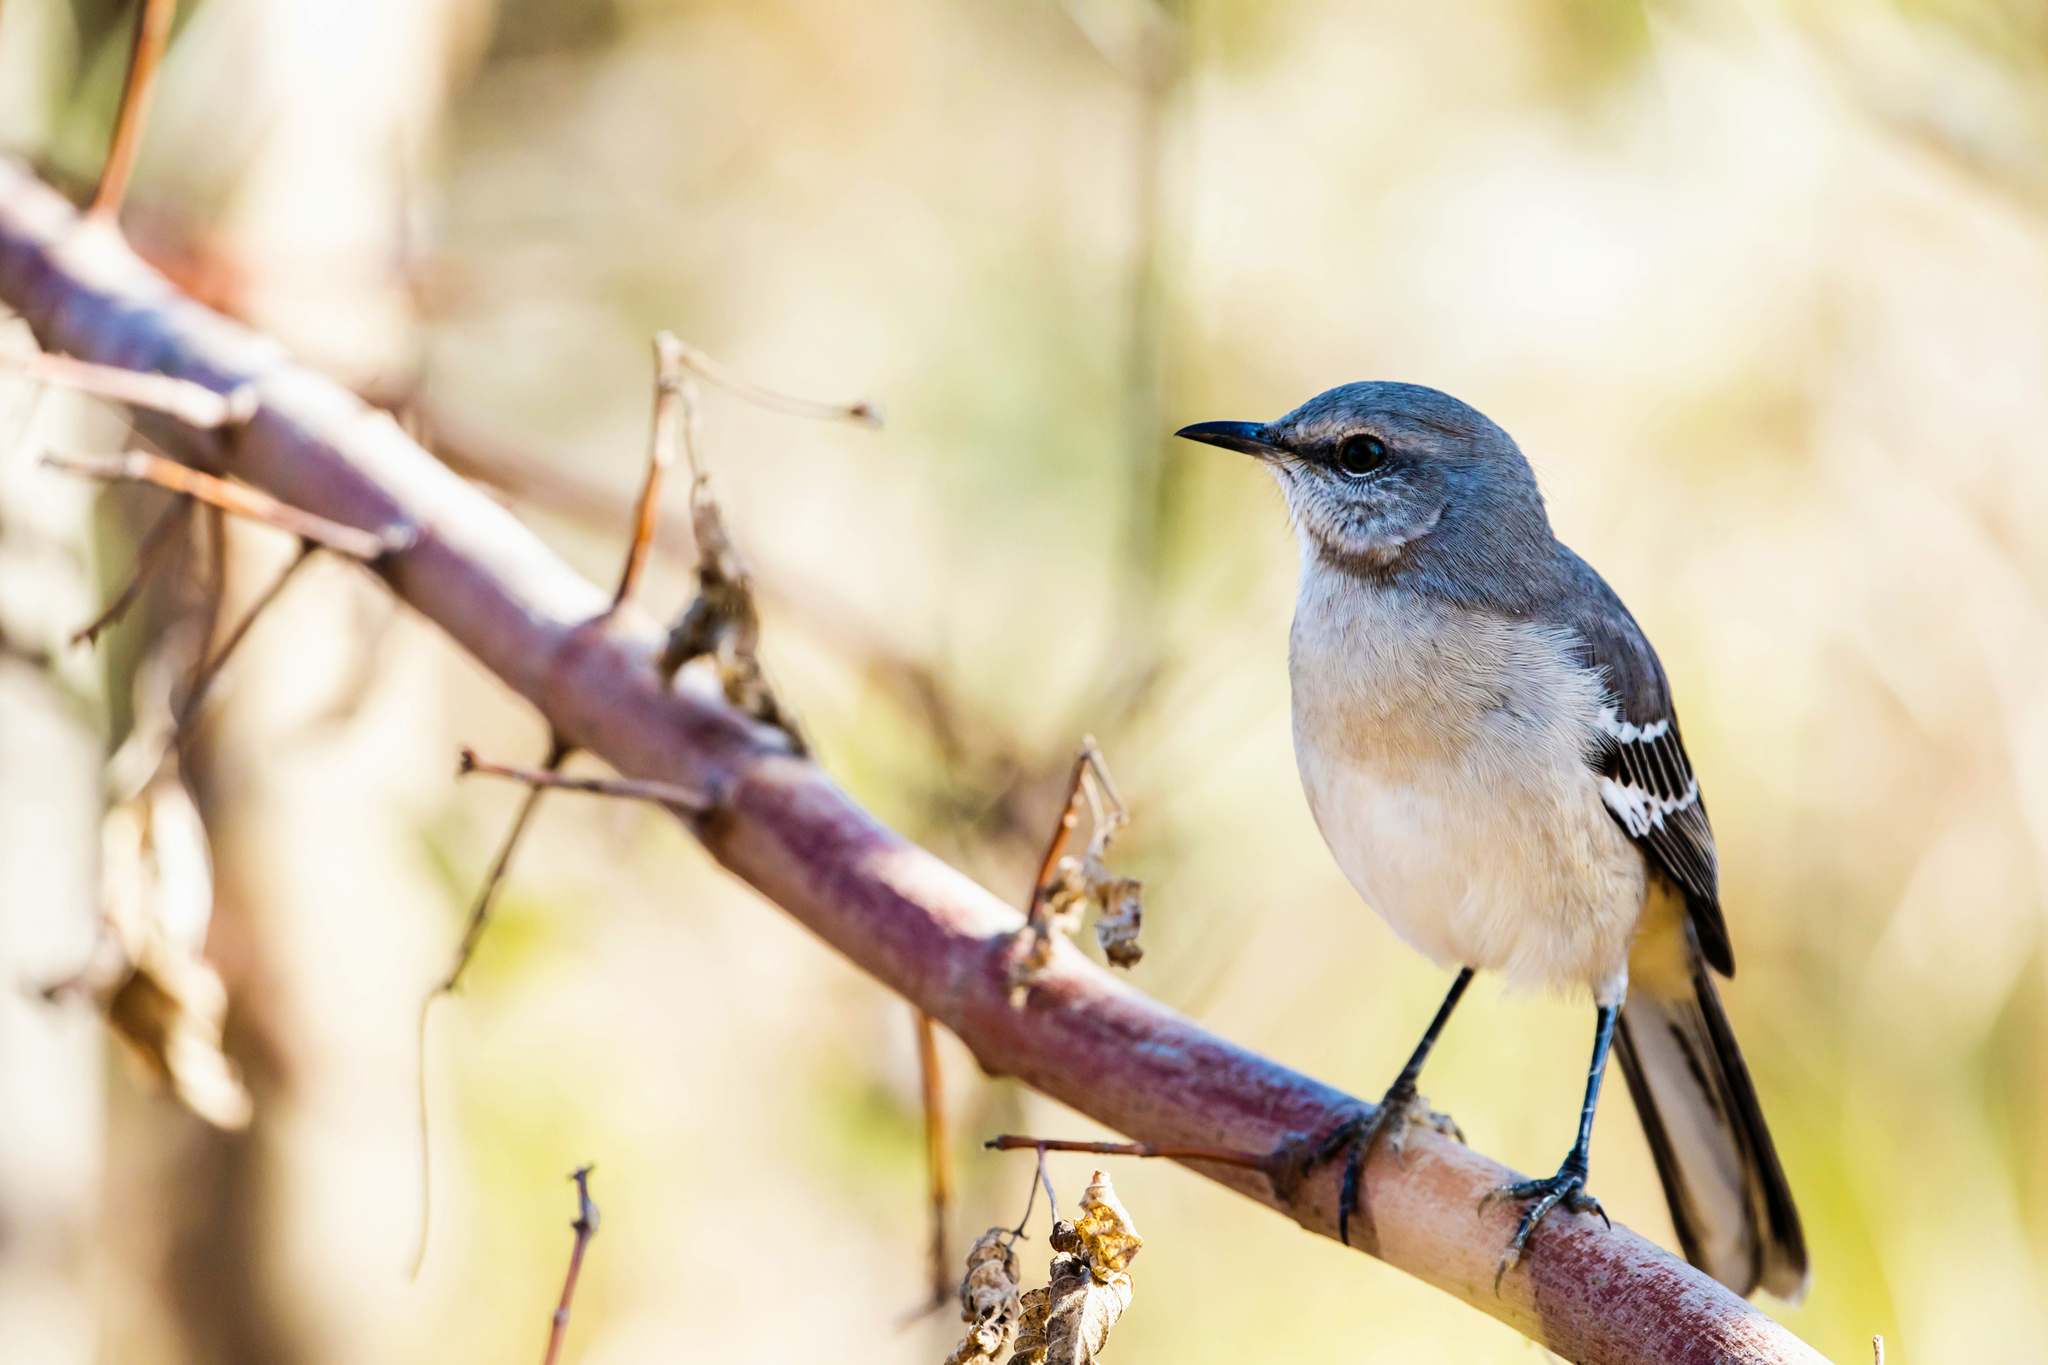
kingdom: Animalia
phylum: Chordata
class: Aves
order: Passeriformes
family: Mimidae
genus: Mimus
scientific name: Mimus polyglottos
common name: Northern mockingbird
